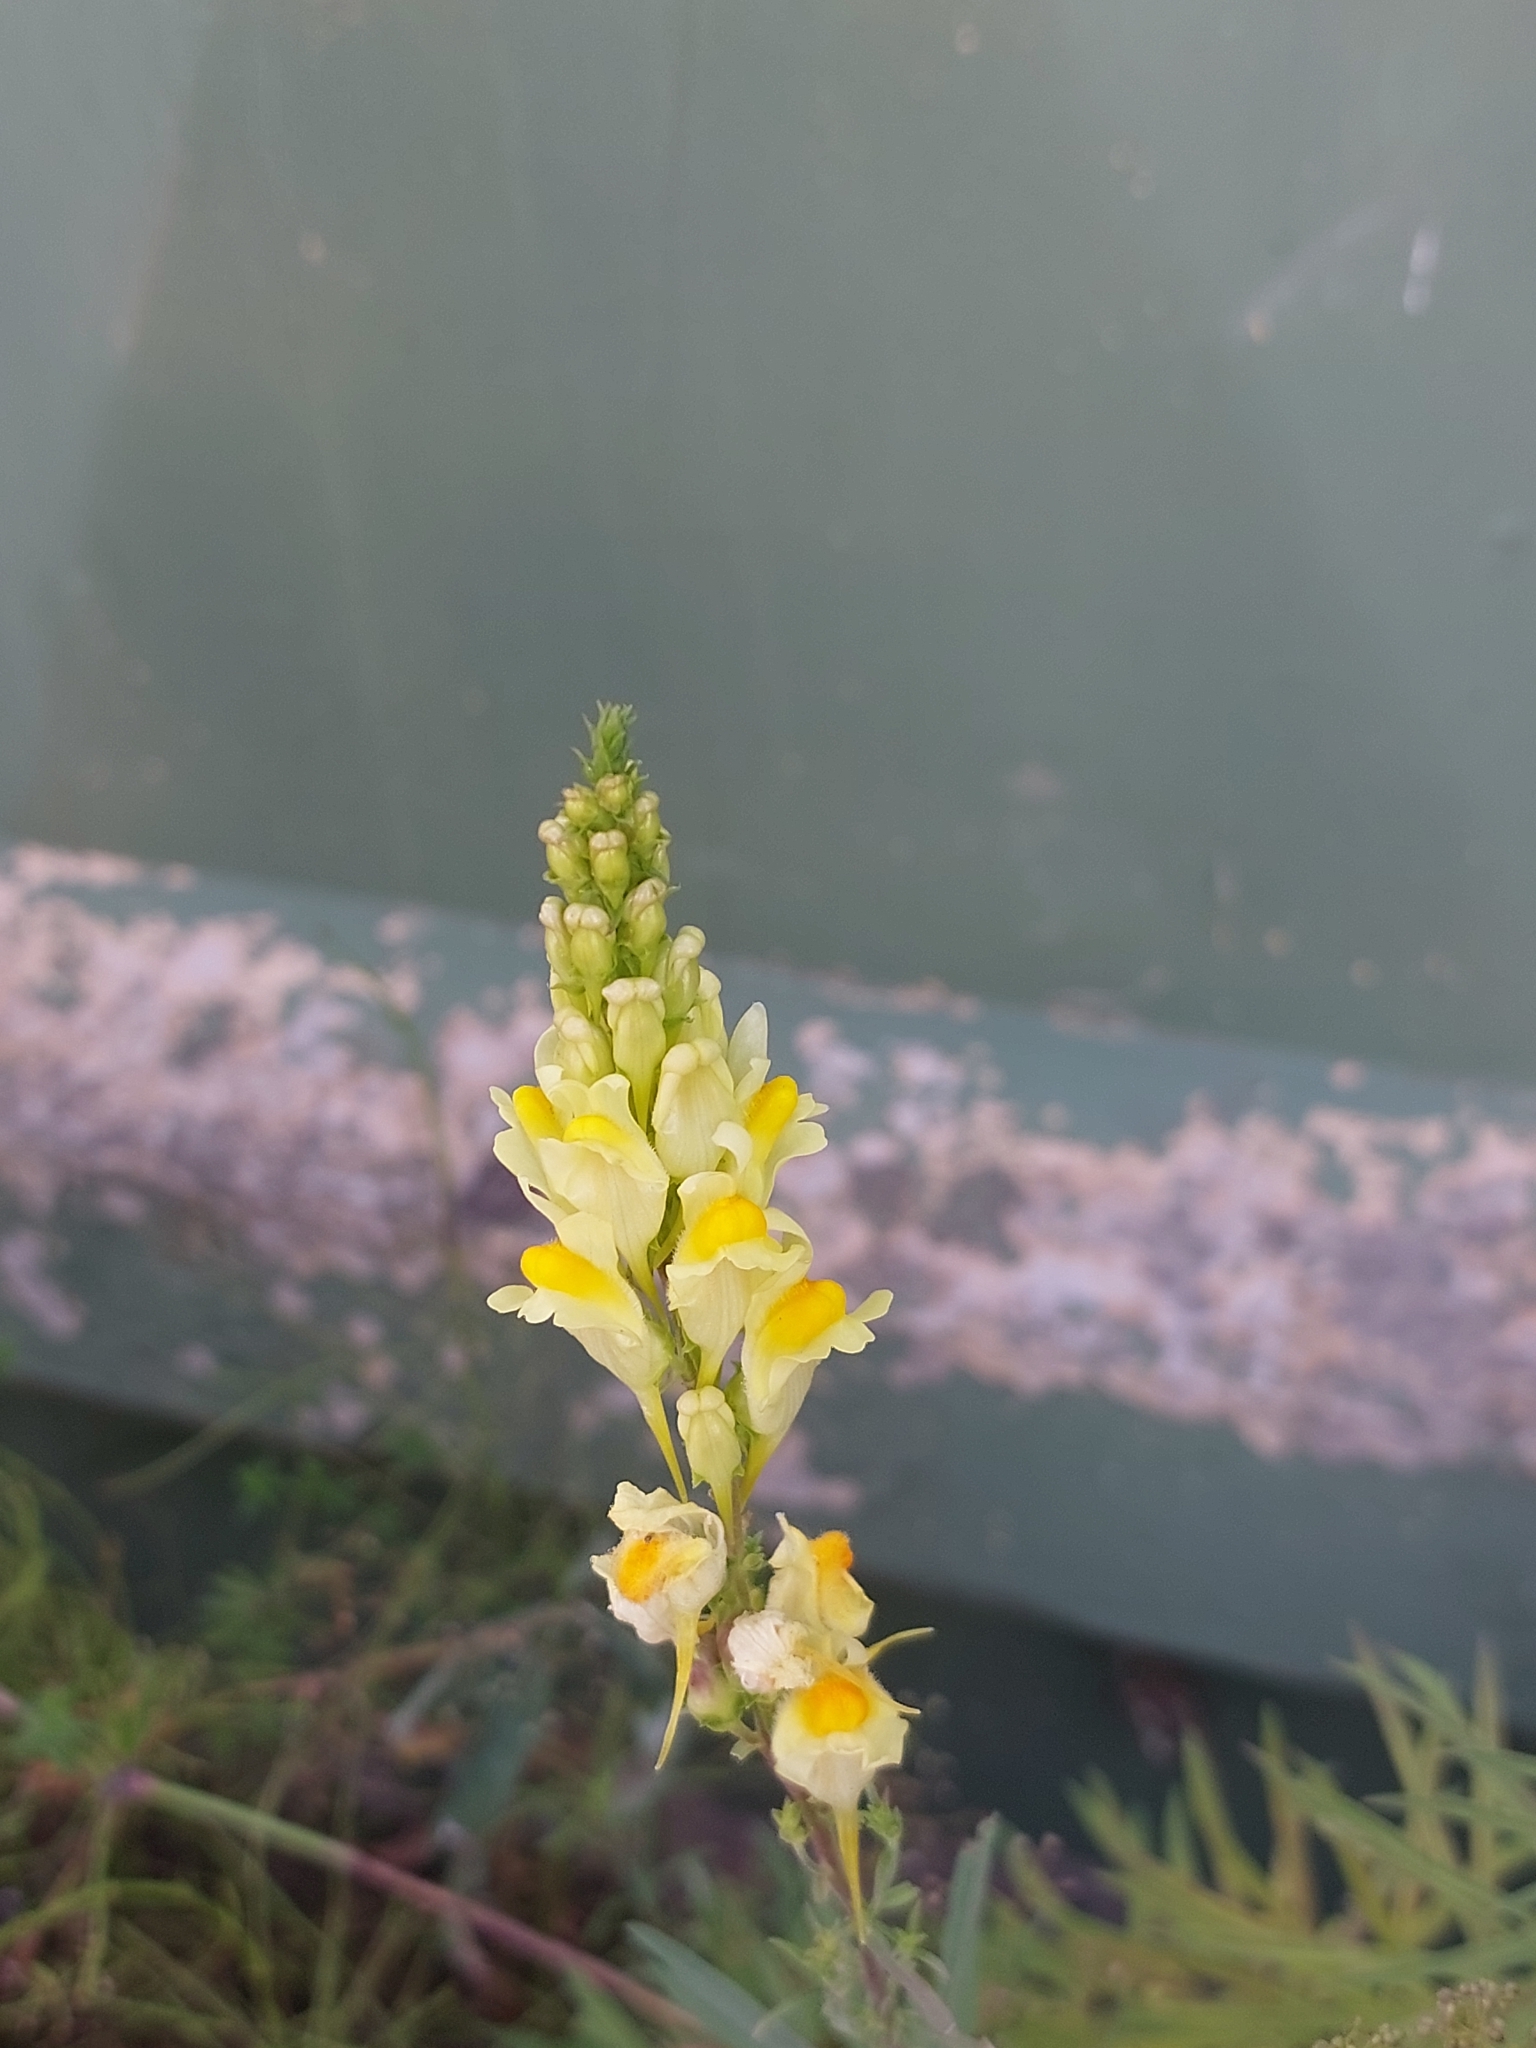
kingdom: Plantae
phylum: Tracheophyta
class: Magnoliopsida
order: Lamiales
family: Plantaginaceae
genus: Linaria
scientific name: Linaria vulgaris
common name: Butter and eggs
